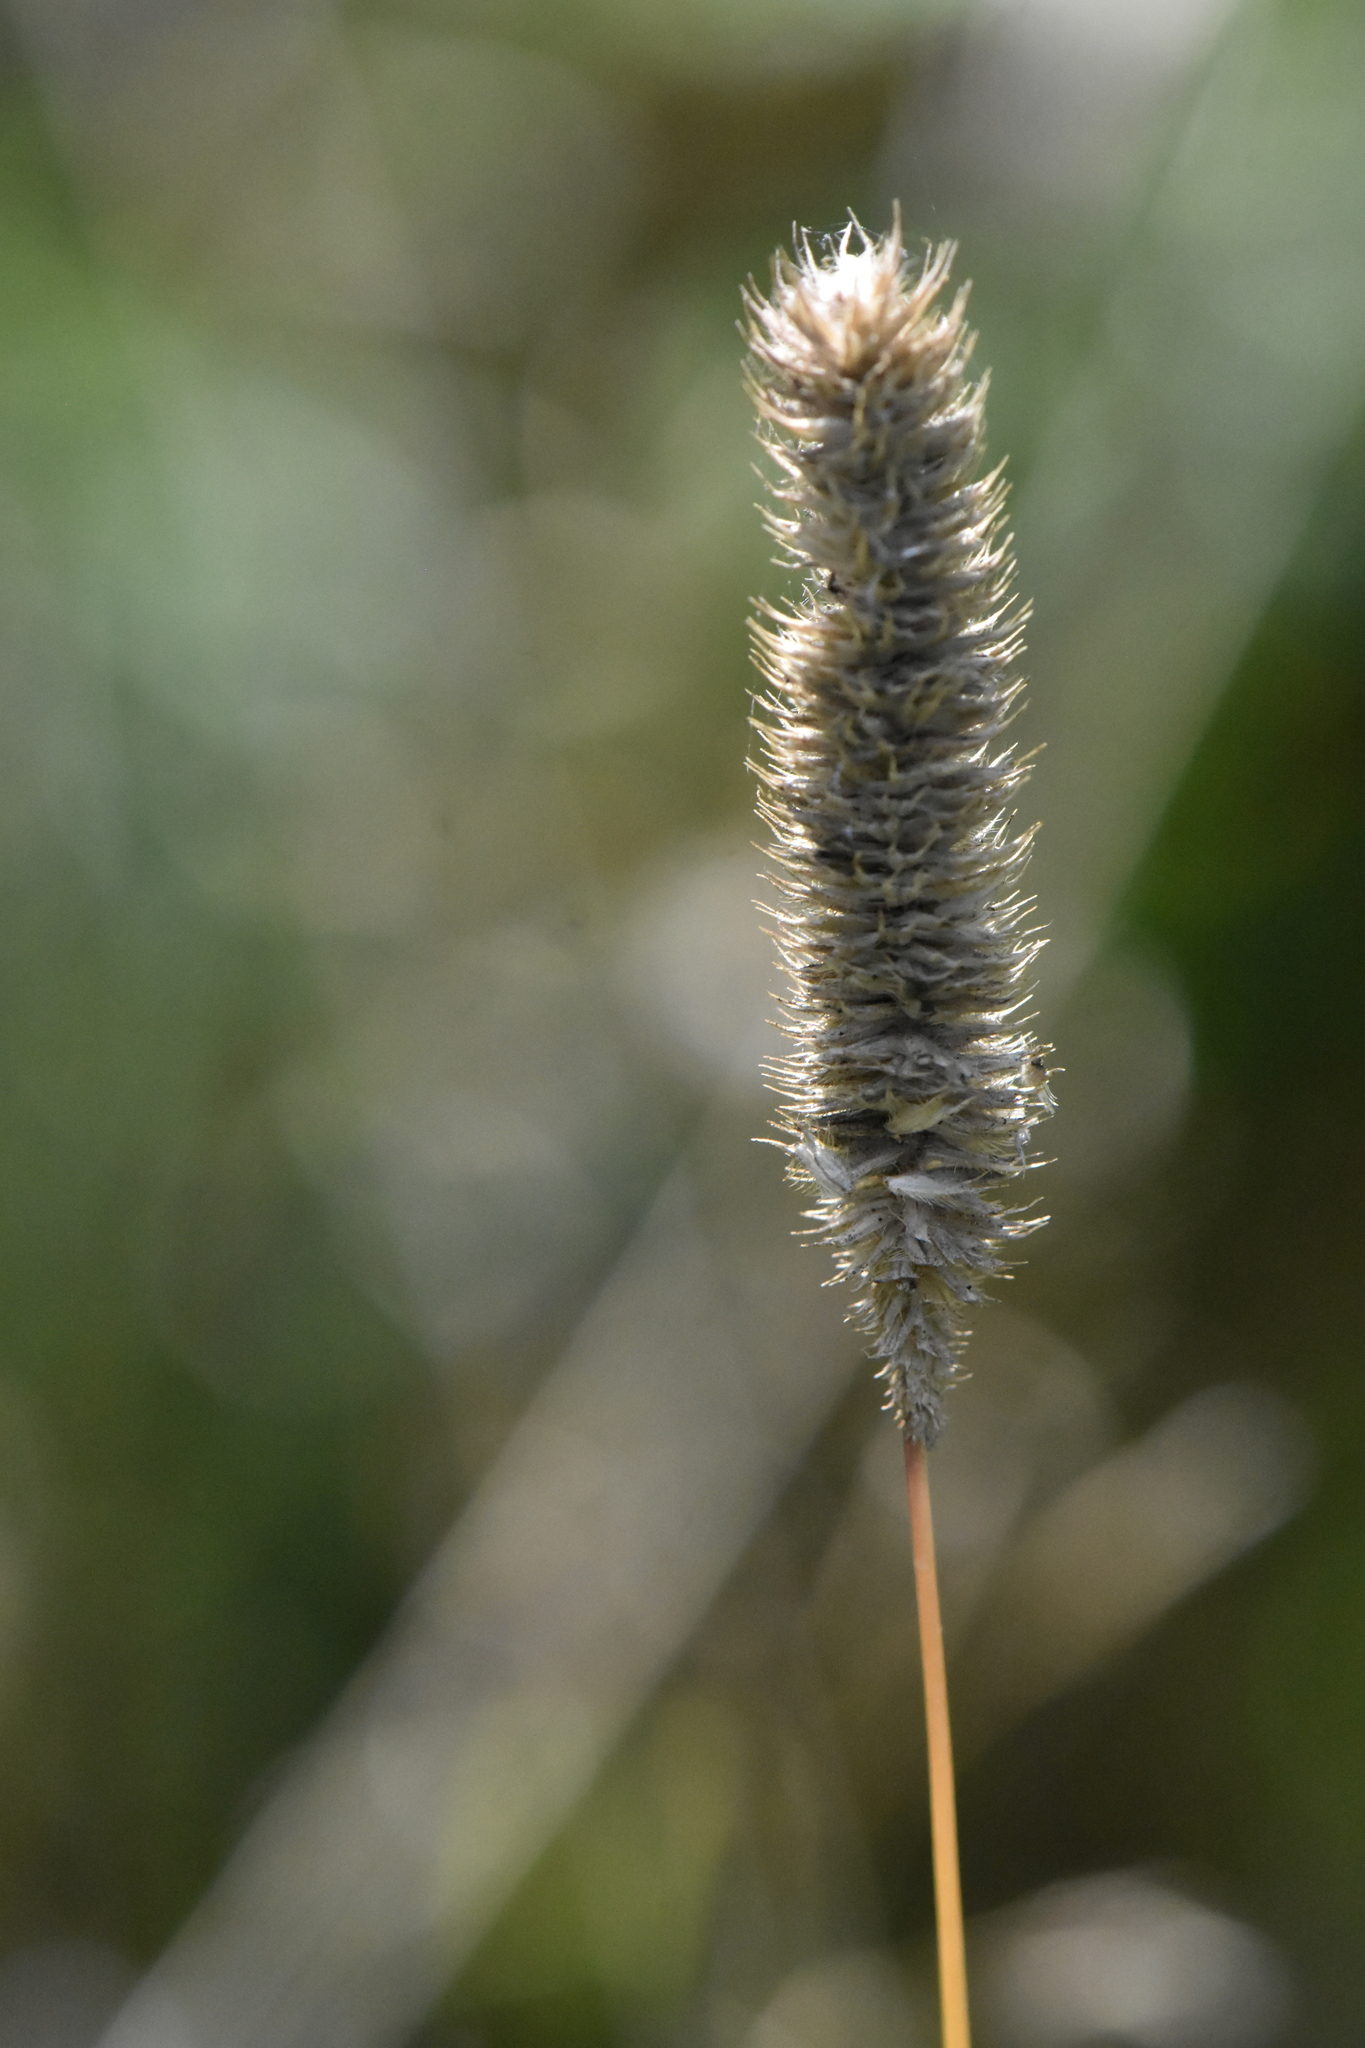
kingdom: Plantae
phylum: Tracheophyta
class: Liliopsida
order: Poales
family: Poaceae
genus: Phleum
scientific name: Phleum pratense
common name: Timothy grass
